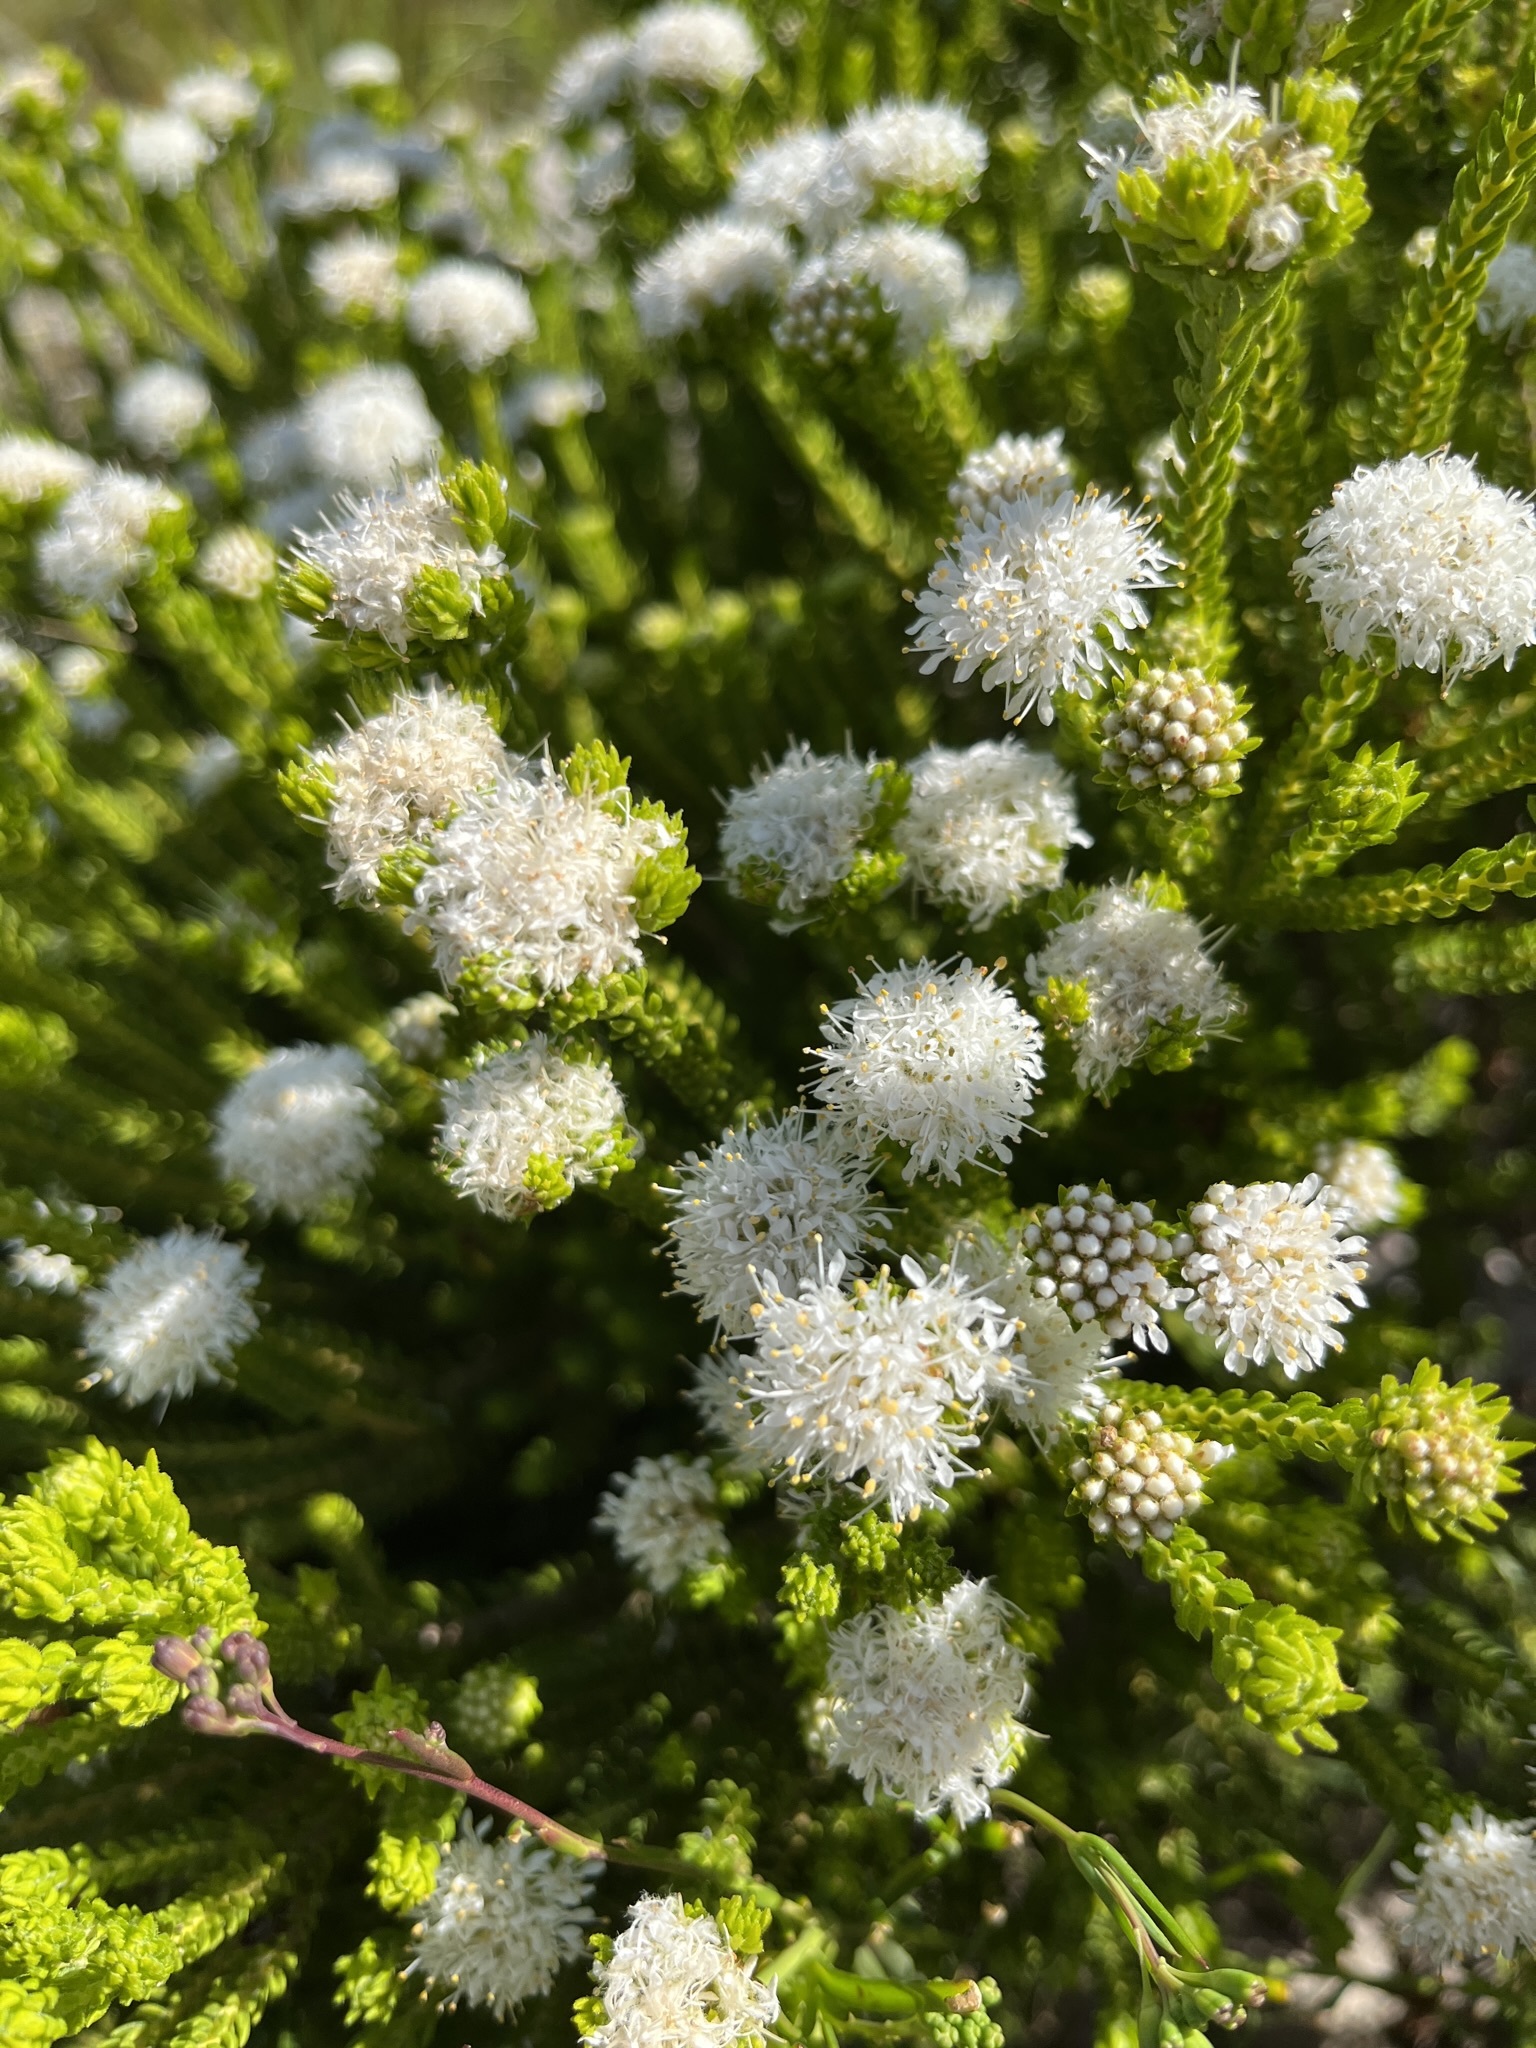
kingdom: Plantae
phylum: Tracheophyta
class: Magnoliopsida
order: Sapindales
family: Rutaceae
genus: Agathosma
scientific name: Agathosma collina
